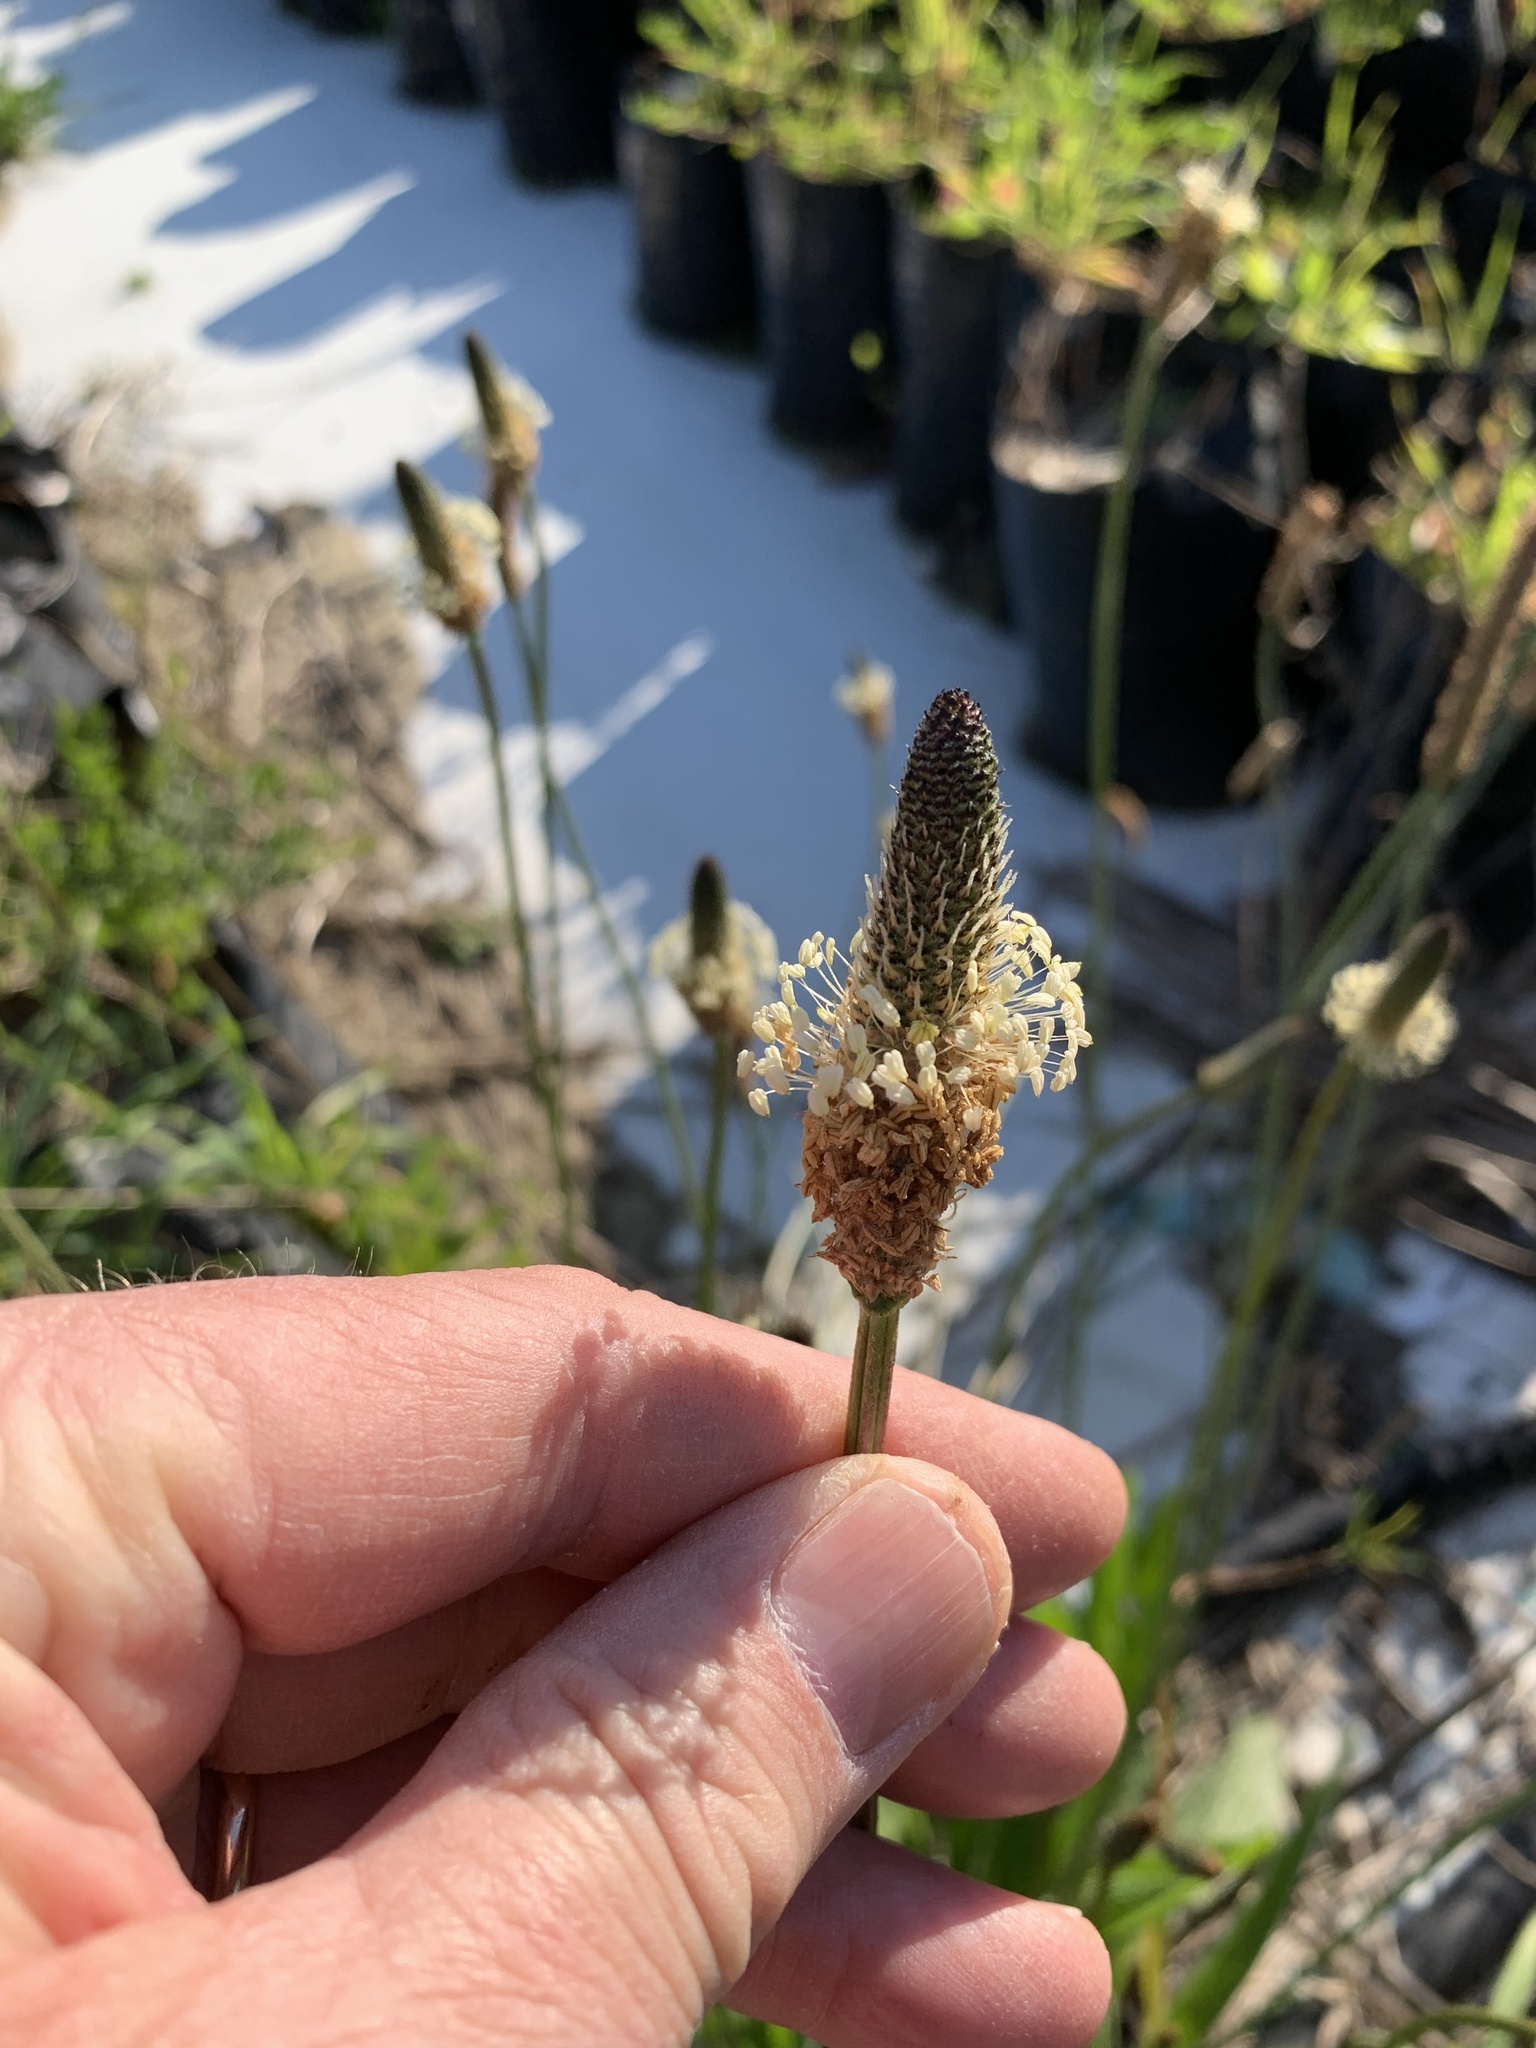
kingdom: Plantae
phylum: Tracheophyta
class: Magnoliopsida
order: Lamiales
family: Plantaginaceae
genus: Plantago
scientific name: Plantago lanceolata
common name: Ribwort plantain
